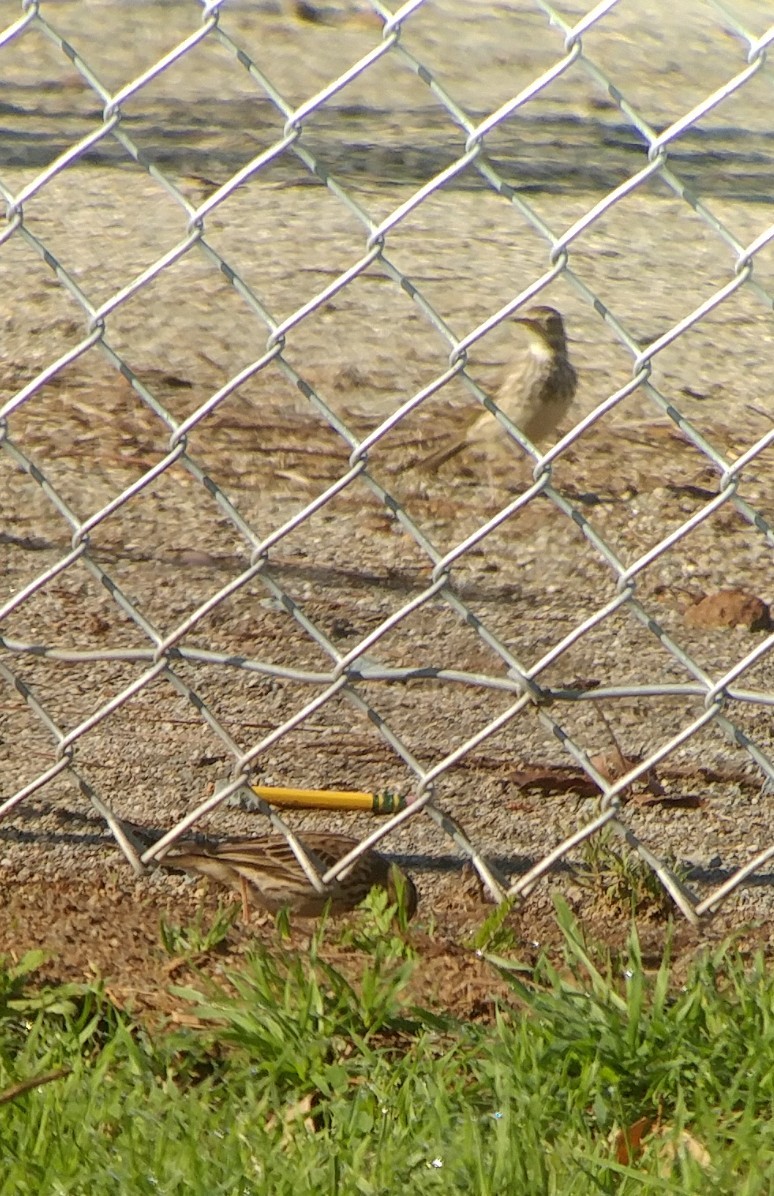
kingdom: Animalia
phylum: Chordata
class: Aves
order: Passeriformes
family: Motacillidae
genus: Anthus
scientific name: Anthus cervinus
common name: Red-throated pipit
